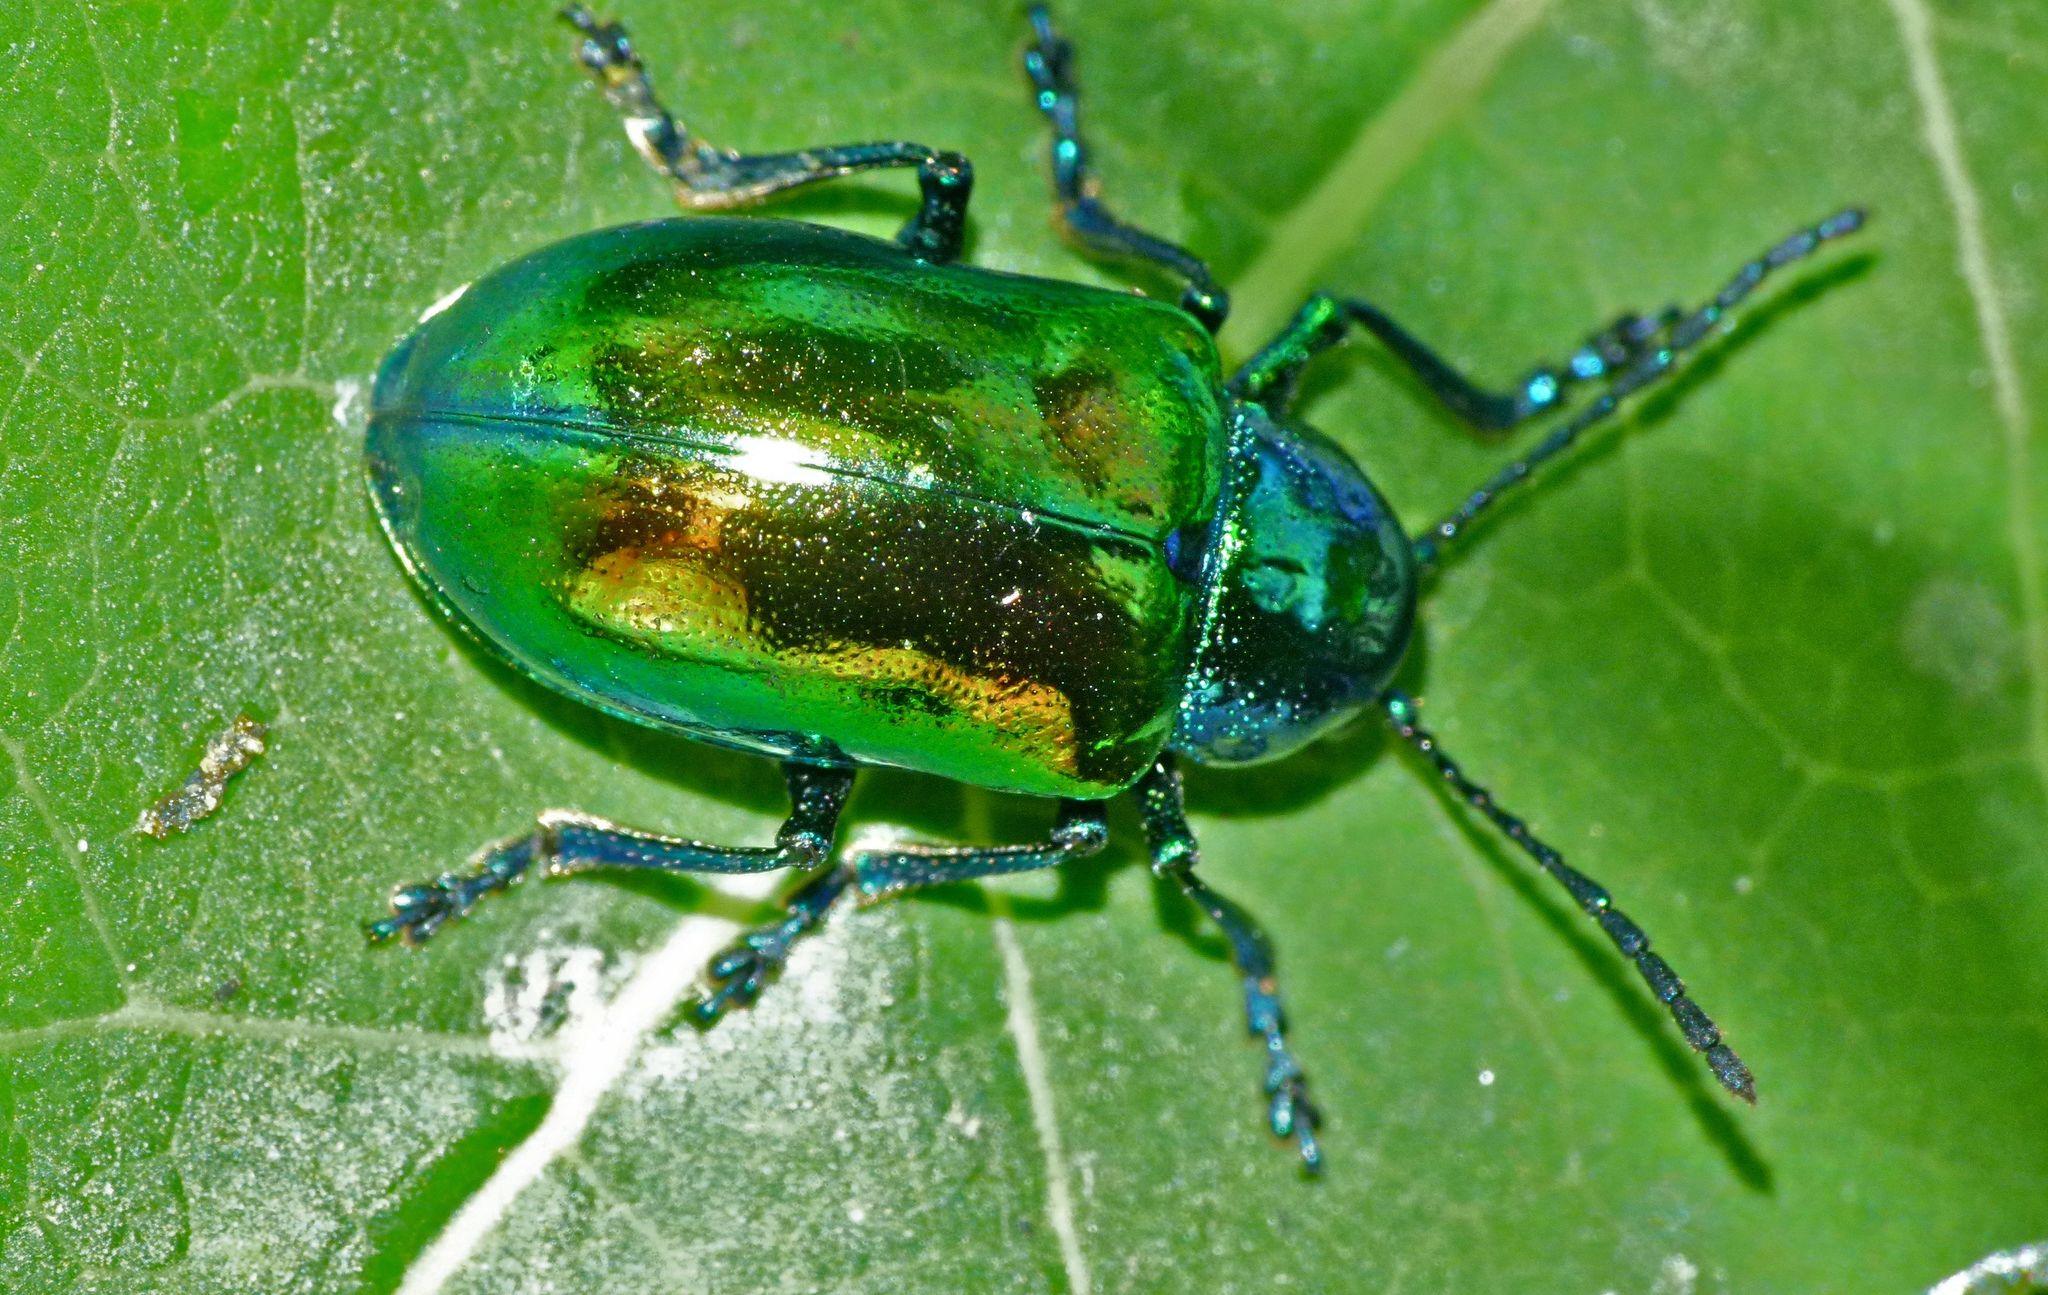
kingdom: Animalia
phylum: Arthropoda
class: Insecta
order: Coleoptera
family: Chrysomelidae
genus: Chrysochus
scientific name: Chrysochus auratus
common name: Dogbane leaf beetle
